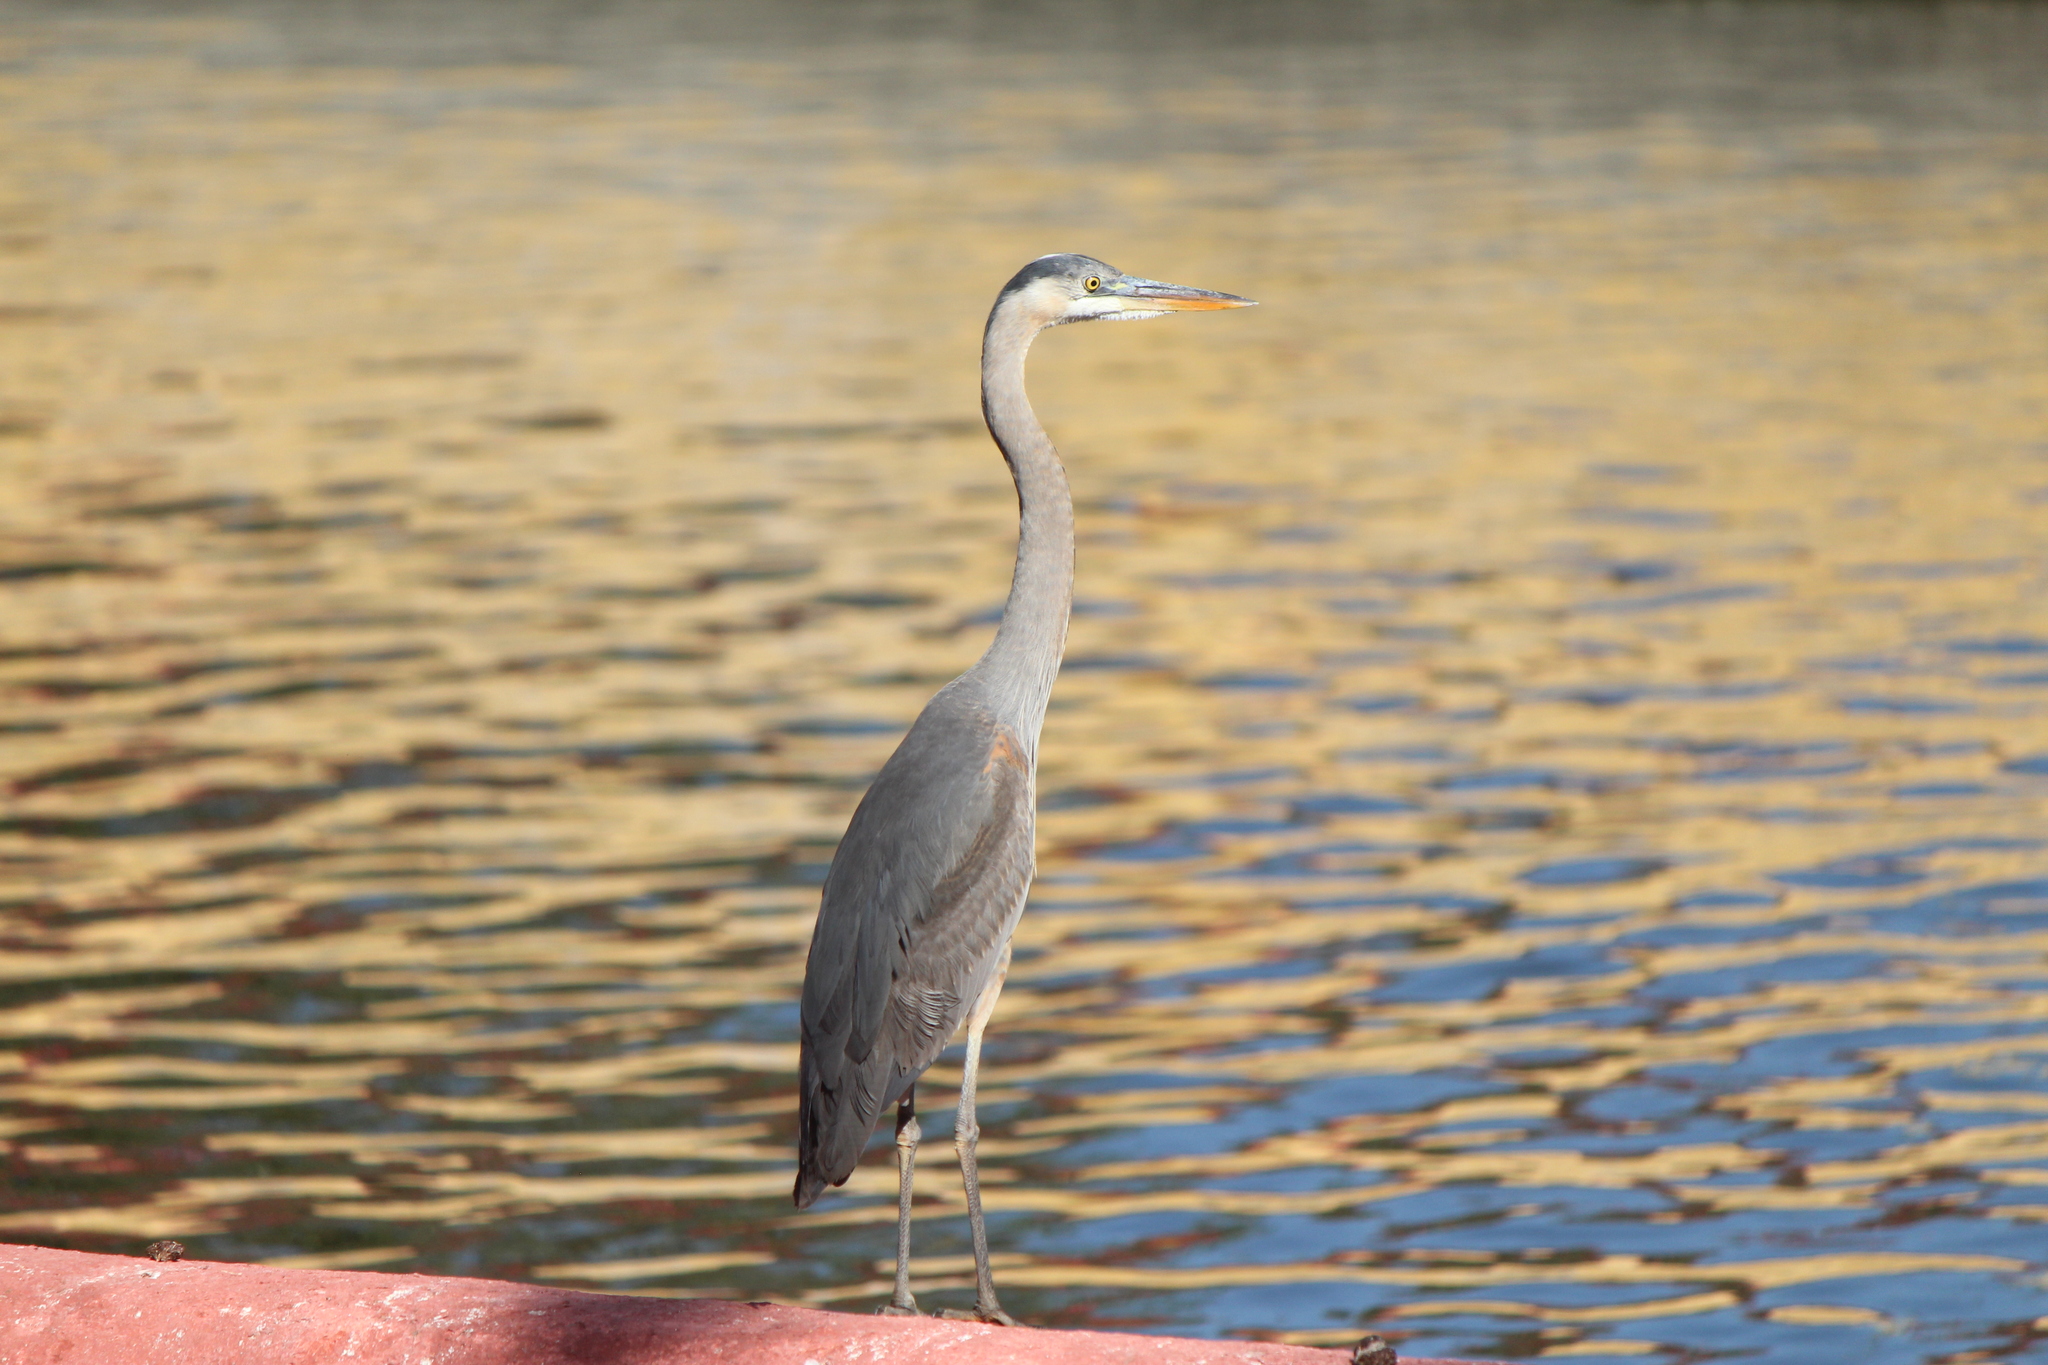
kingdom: Animalia
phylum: Chordata
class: Aves
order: Pelecaniformes
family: Ardeidae
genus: Ardea
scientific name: Ardea herodias
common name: Great blue heron
